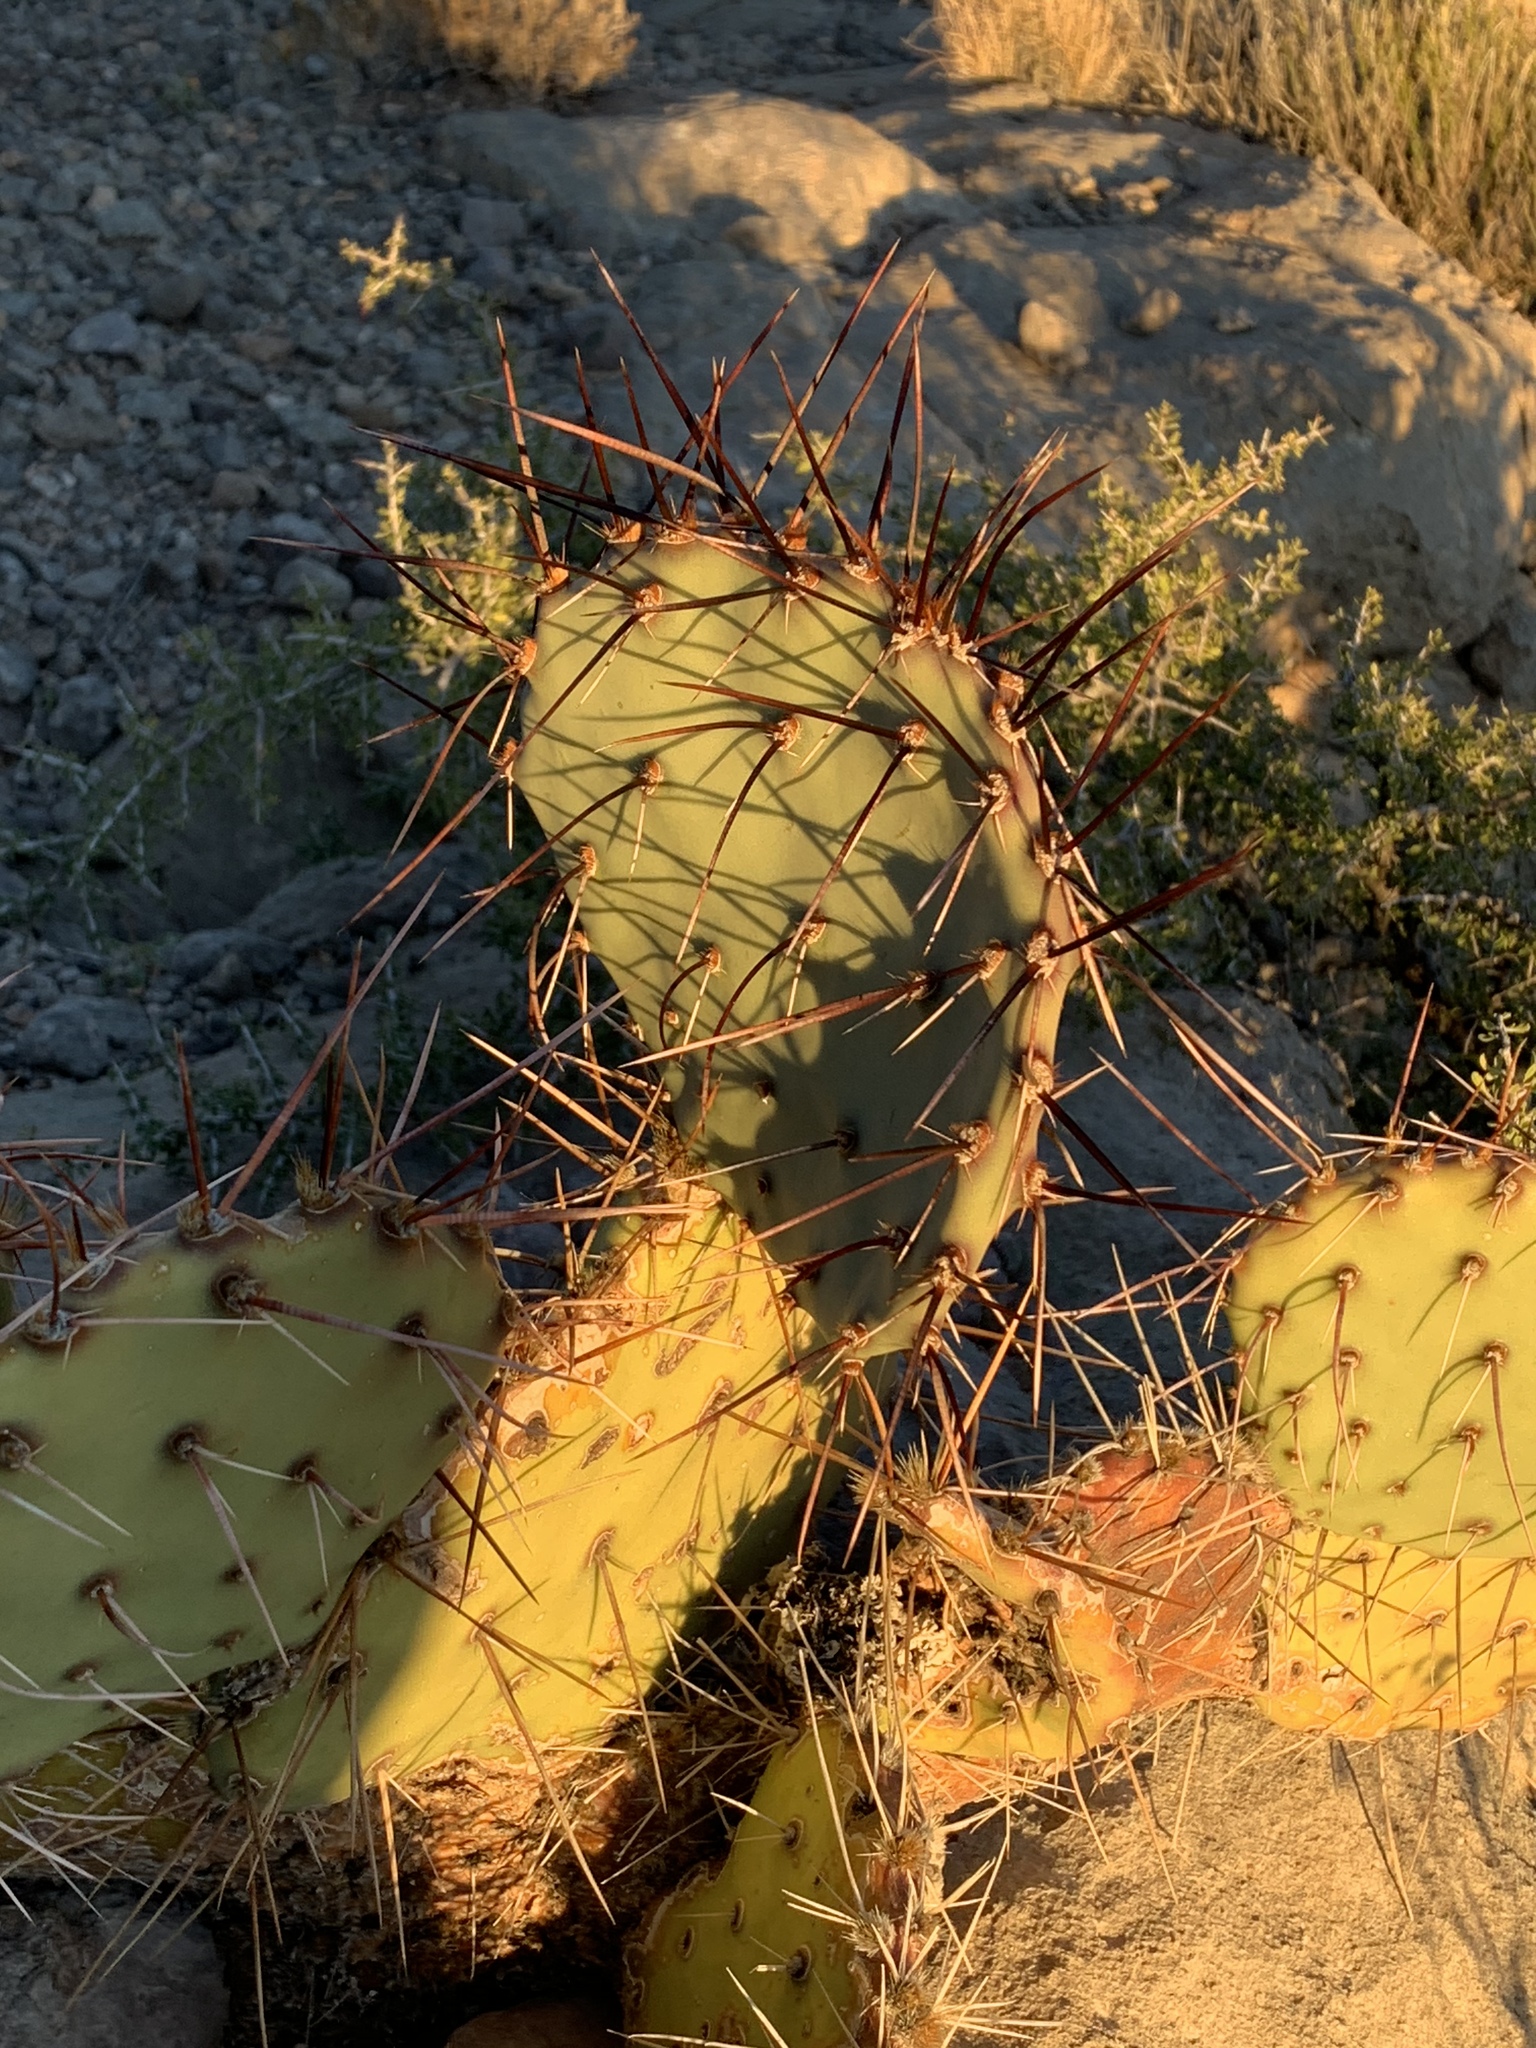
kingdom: Plantae
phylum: Tracheophyta
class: Magnoliopsida
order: Caryophyllales
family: Cactaceae
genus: Opuntia
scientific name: Opuntia phaeacantha
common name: New mexico prickly-pear
